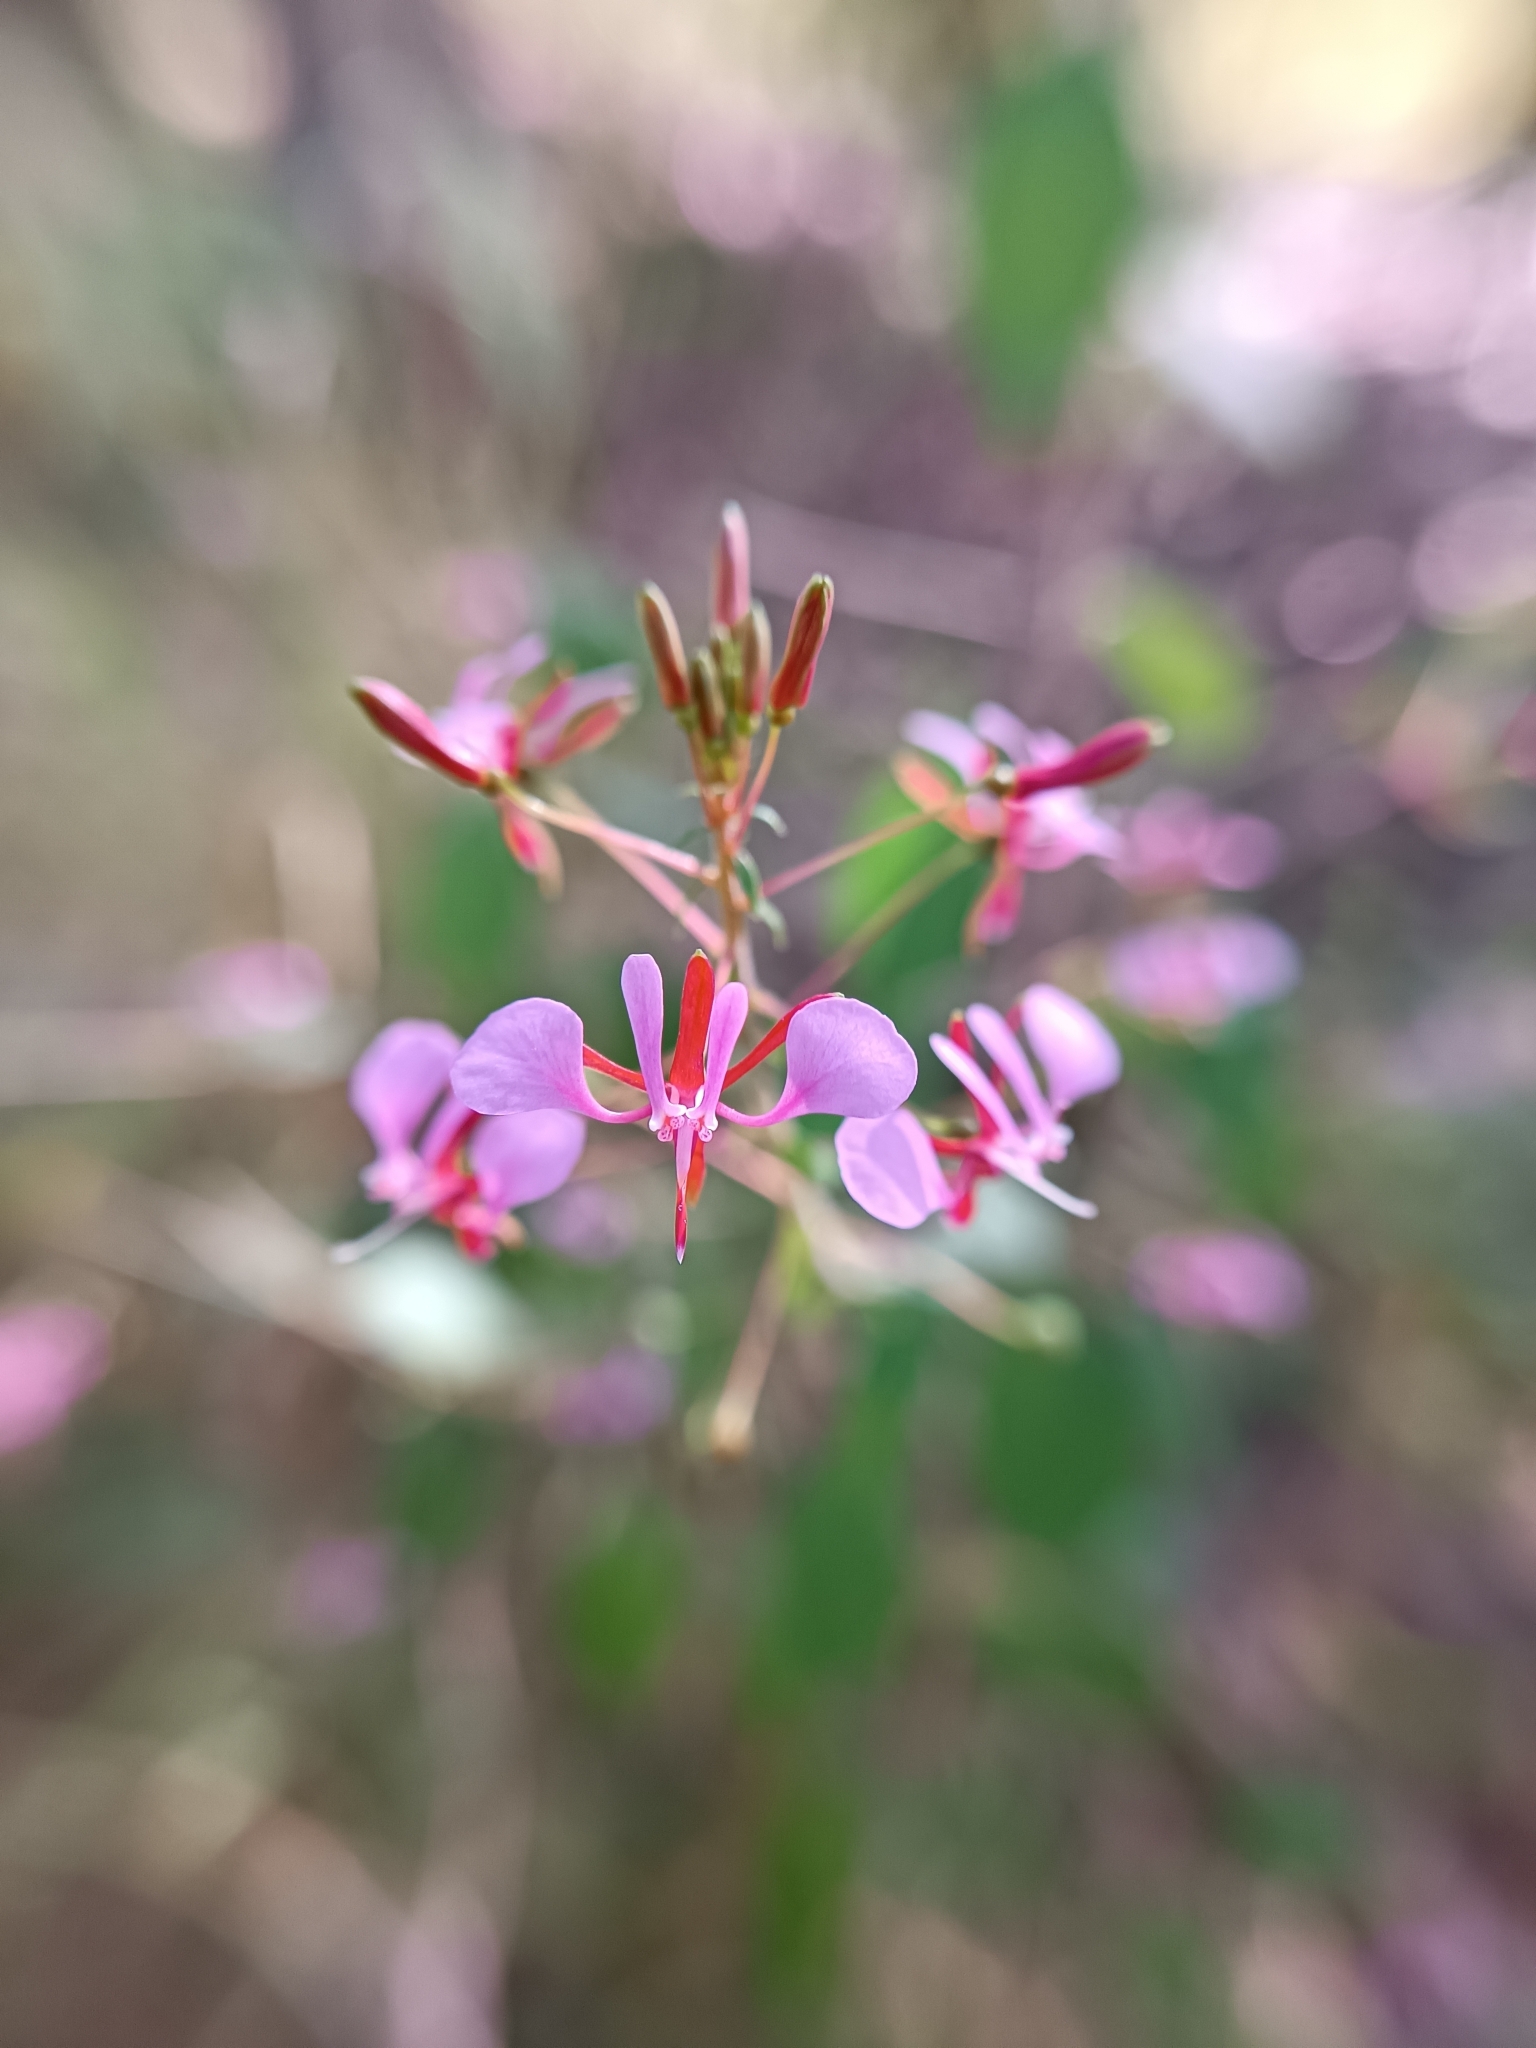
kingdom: Plantae
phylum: Tracheophyta
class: Magnoliopsida
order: Myrtales
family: Onagraceae
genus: Lopezia
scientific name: Lopezia racemosa
